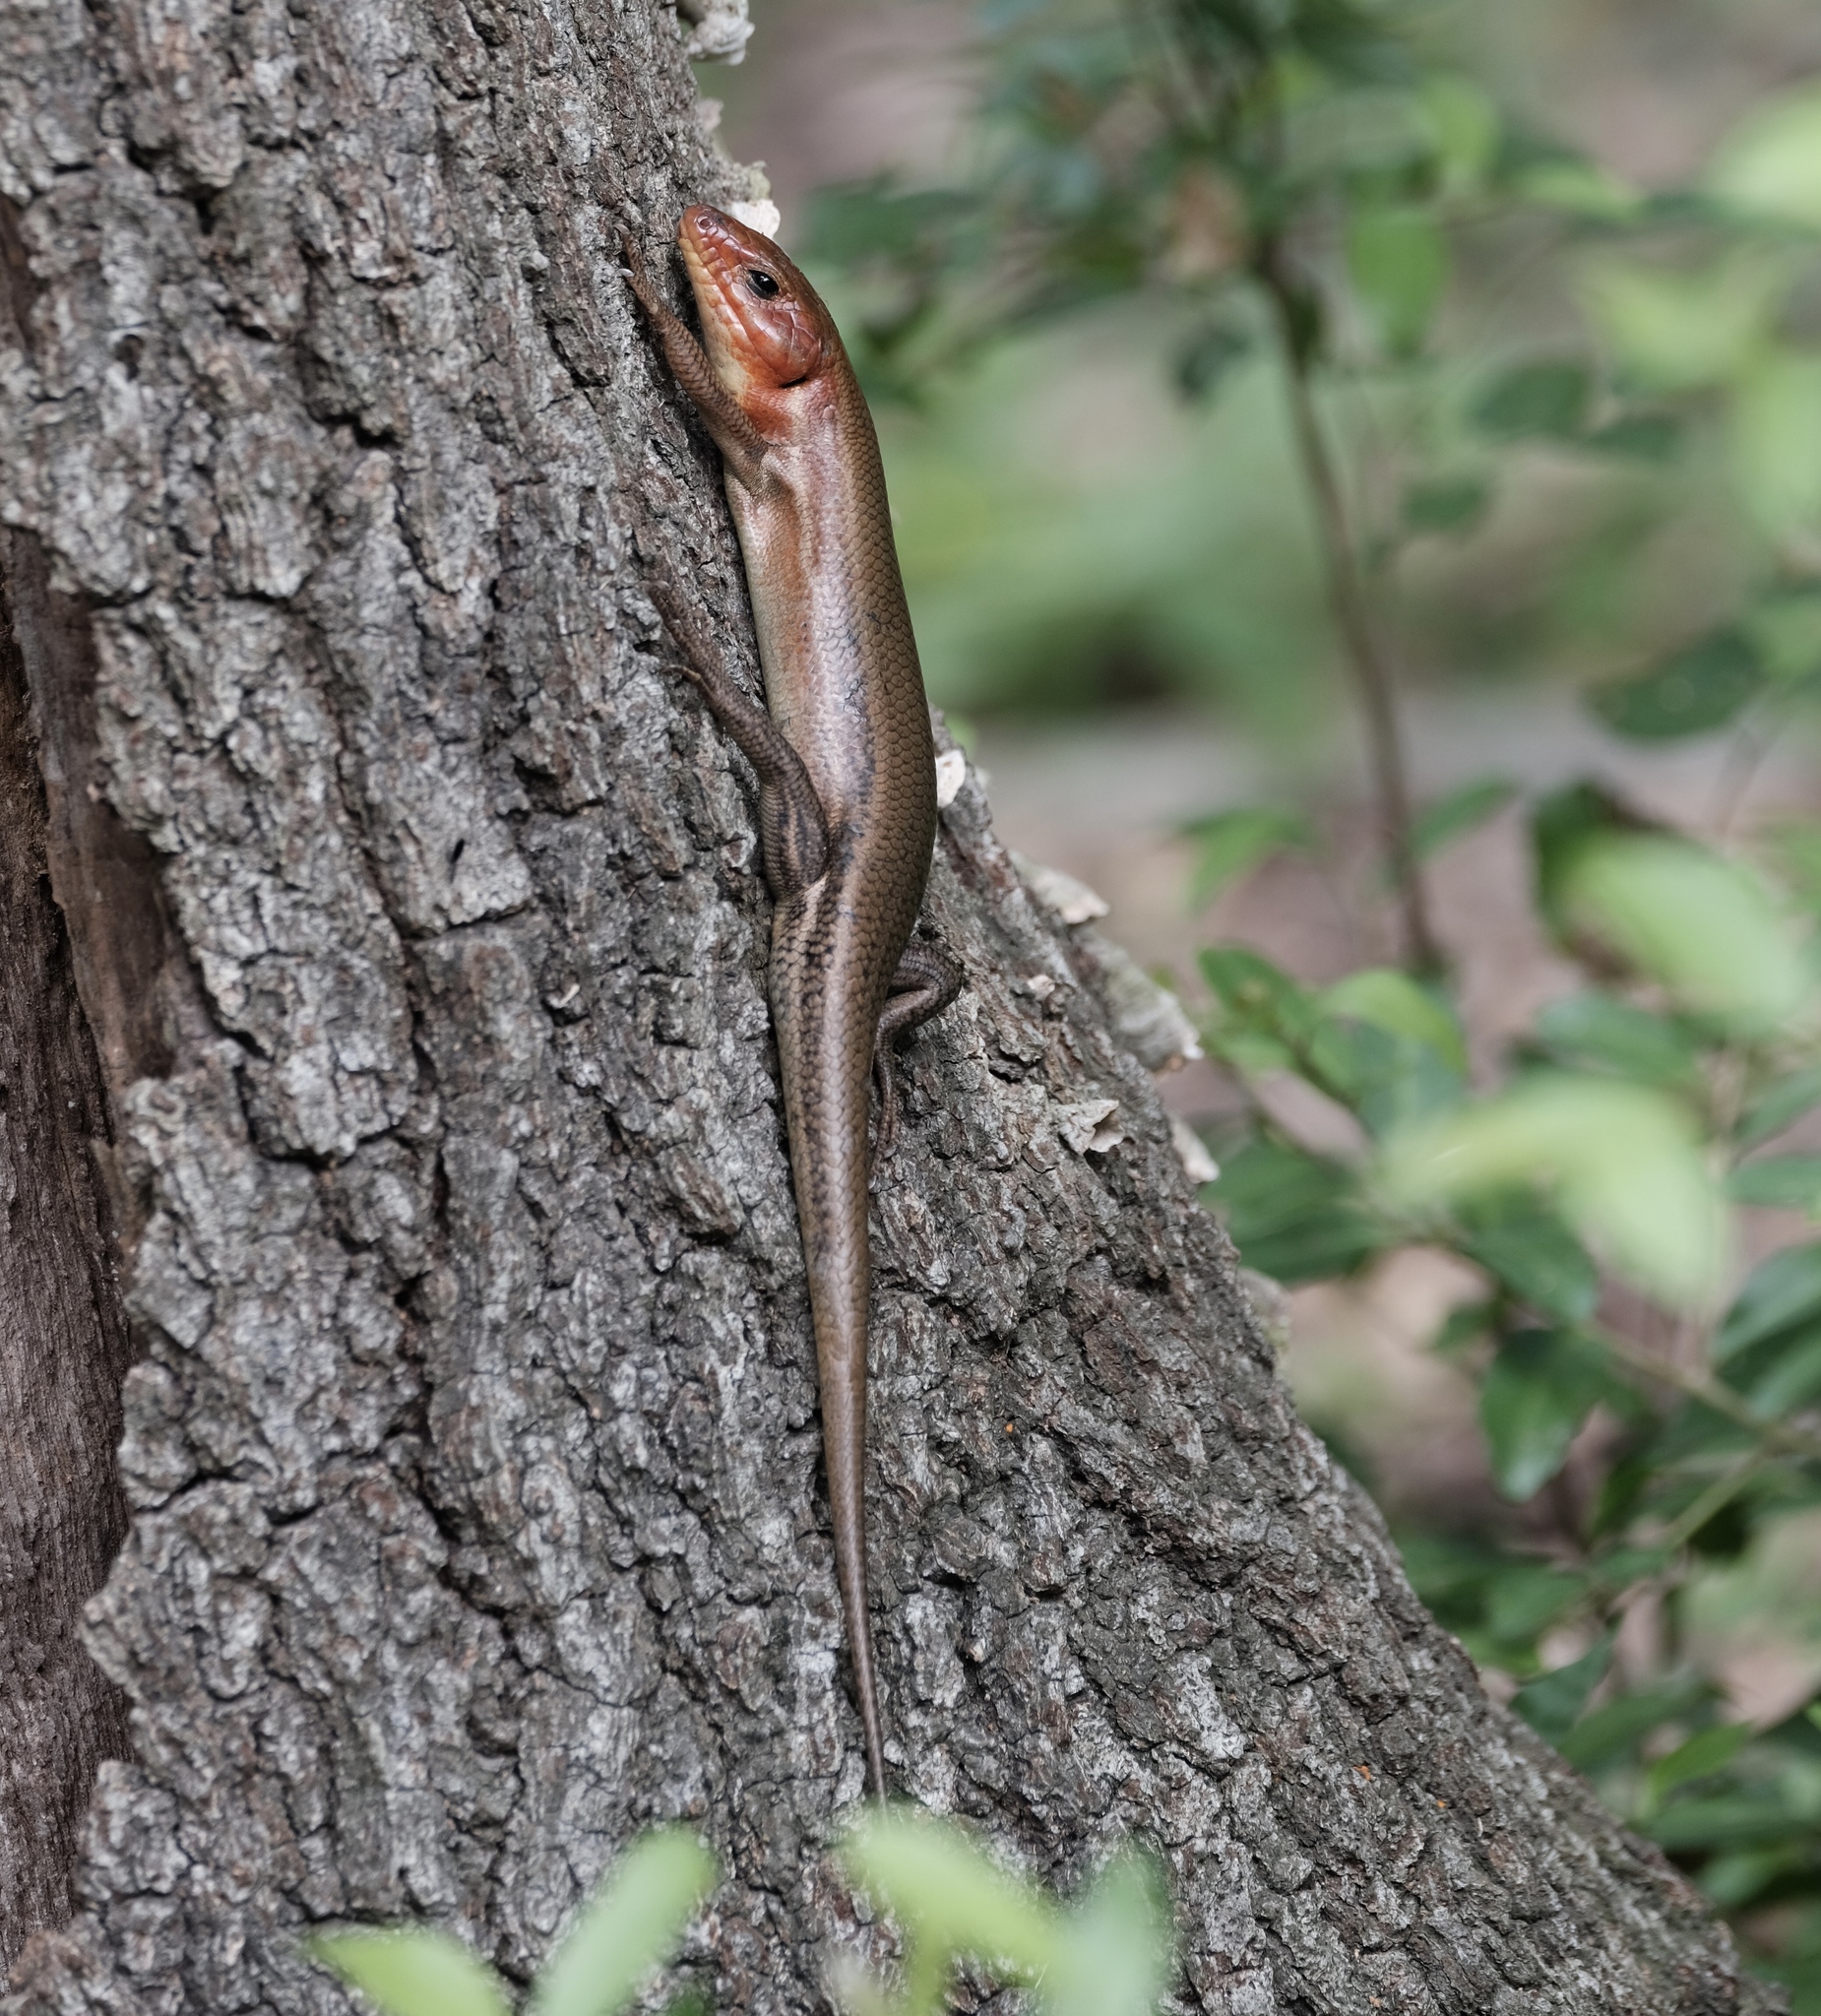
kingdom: Animalia
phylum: Chordata
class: Squamata
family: Scincidae
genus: Plestiodon
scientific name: Plestiodon laticeps
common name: Broadhead skink
